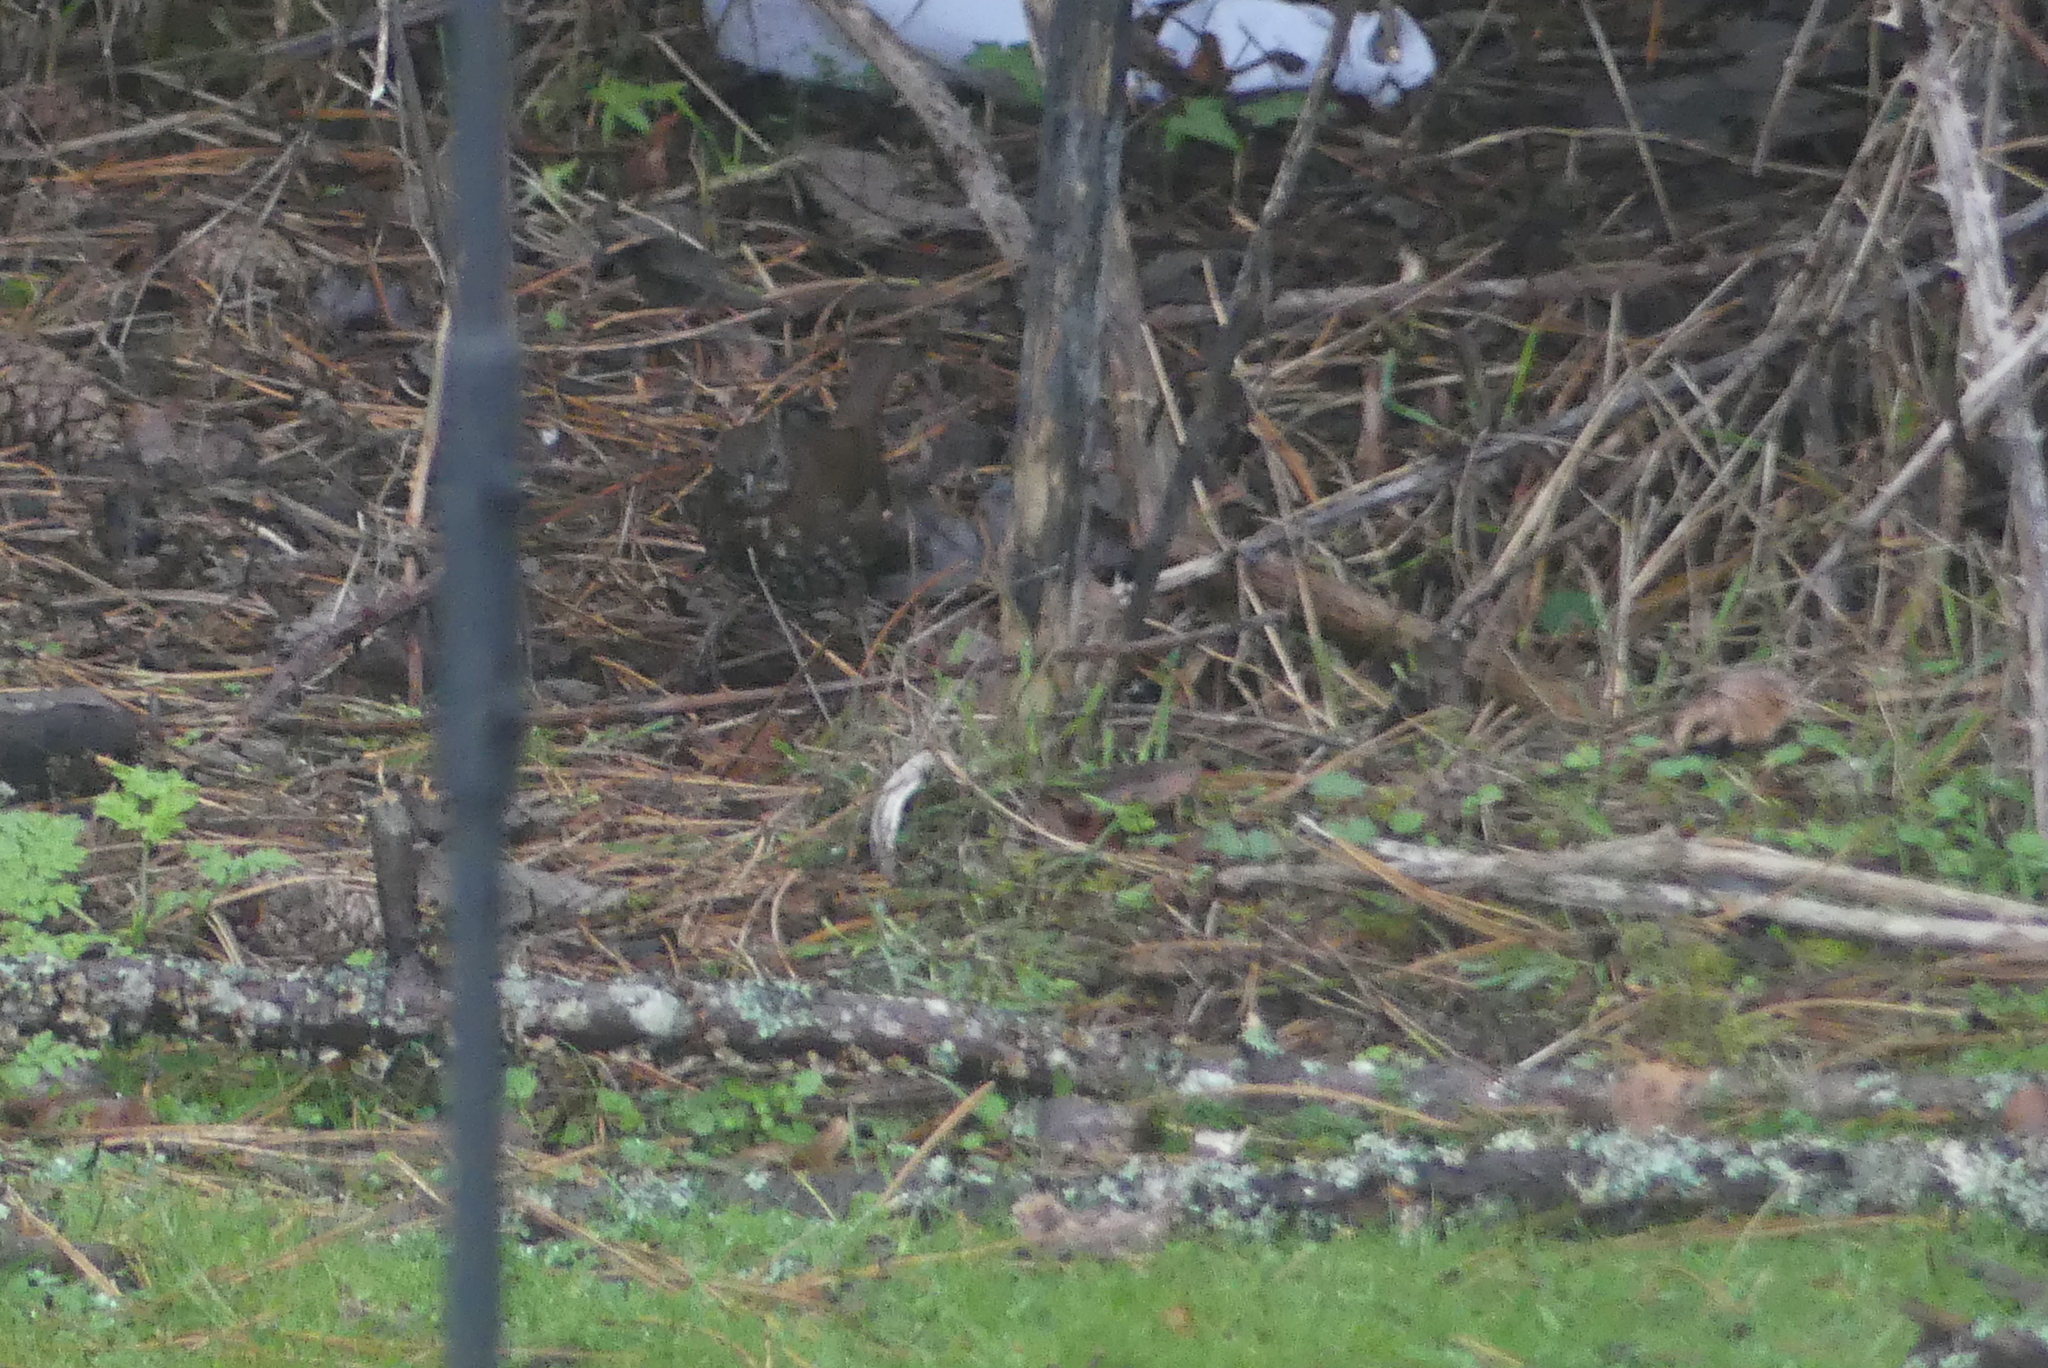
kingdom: Animalia
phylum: Chordata
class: Aves
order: Passeriformes
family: Passerellidae
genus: Passerella
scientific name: Passerella iliaca
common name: Fox sparrow
